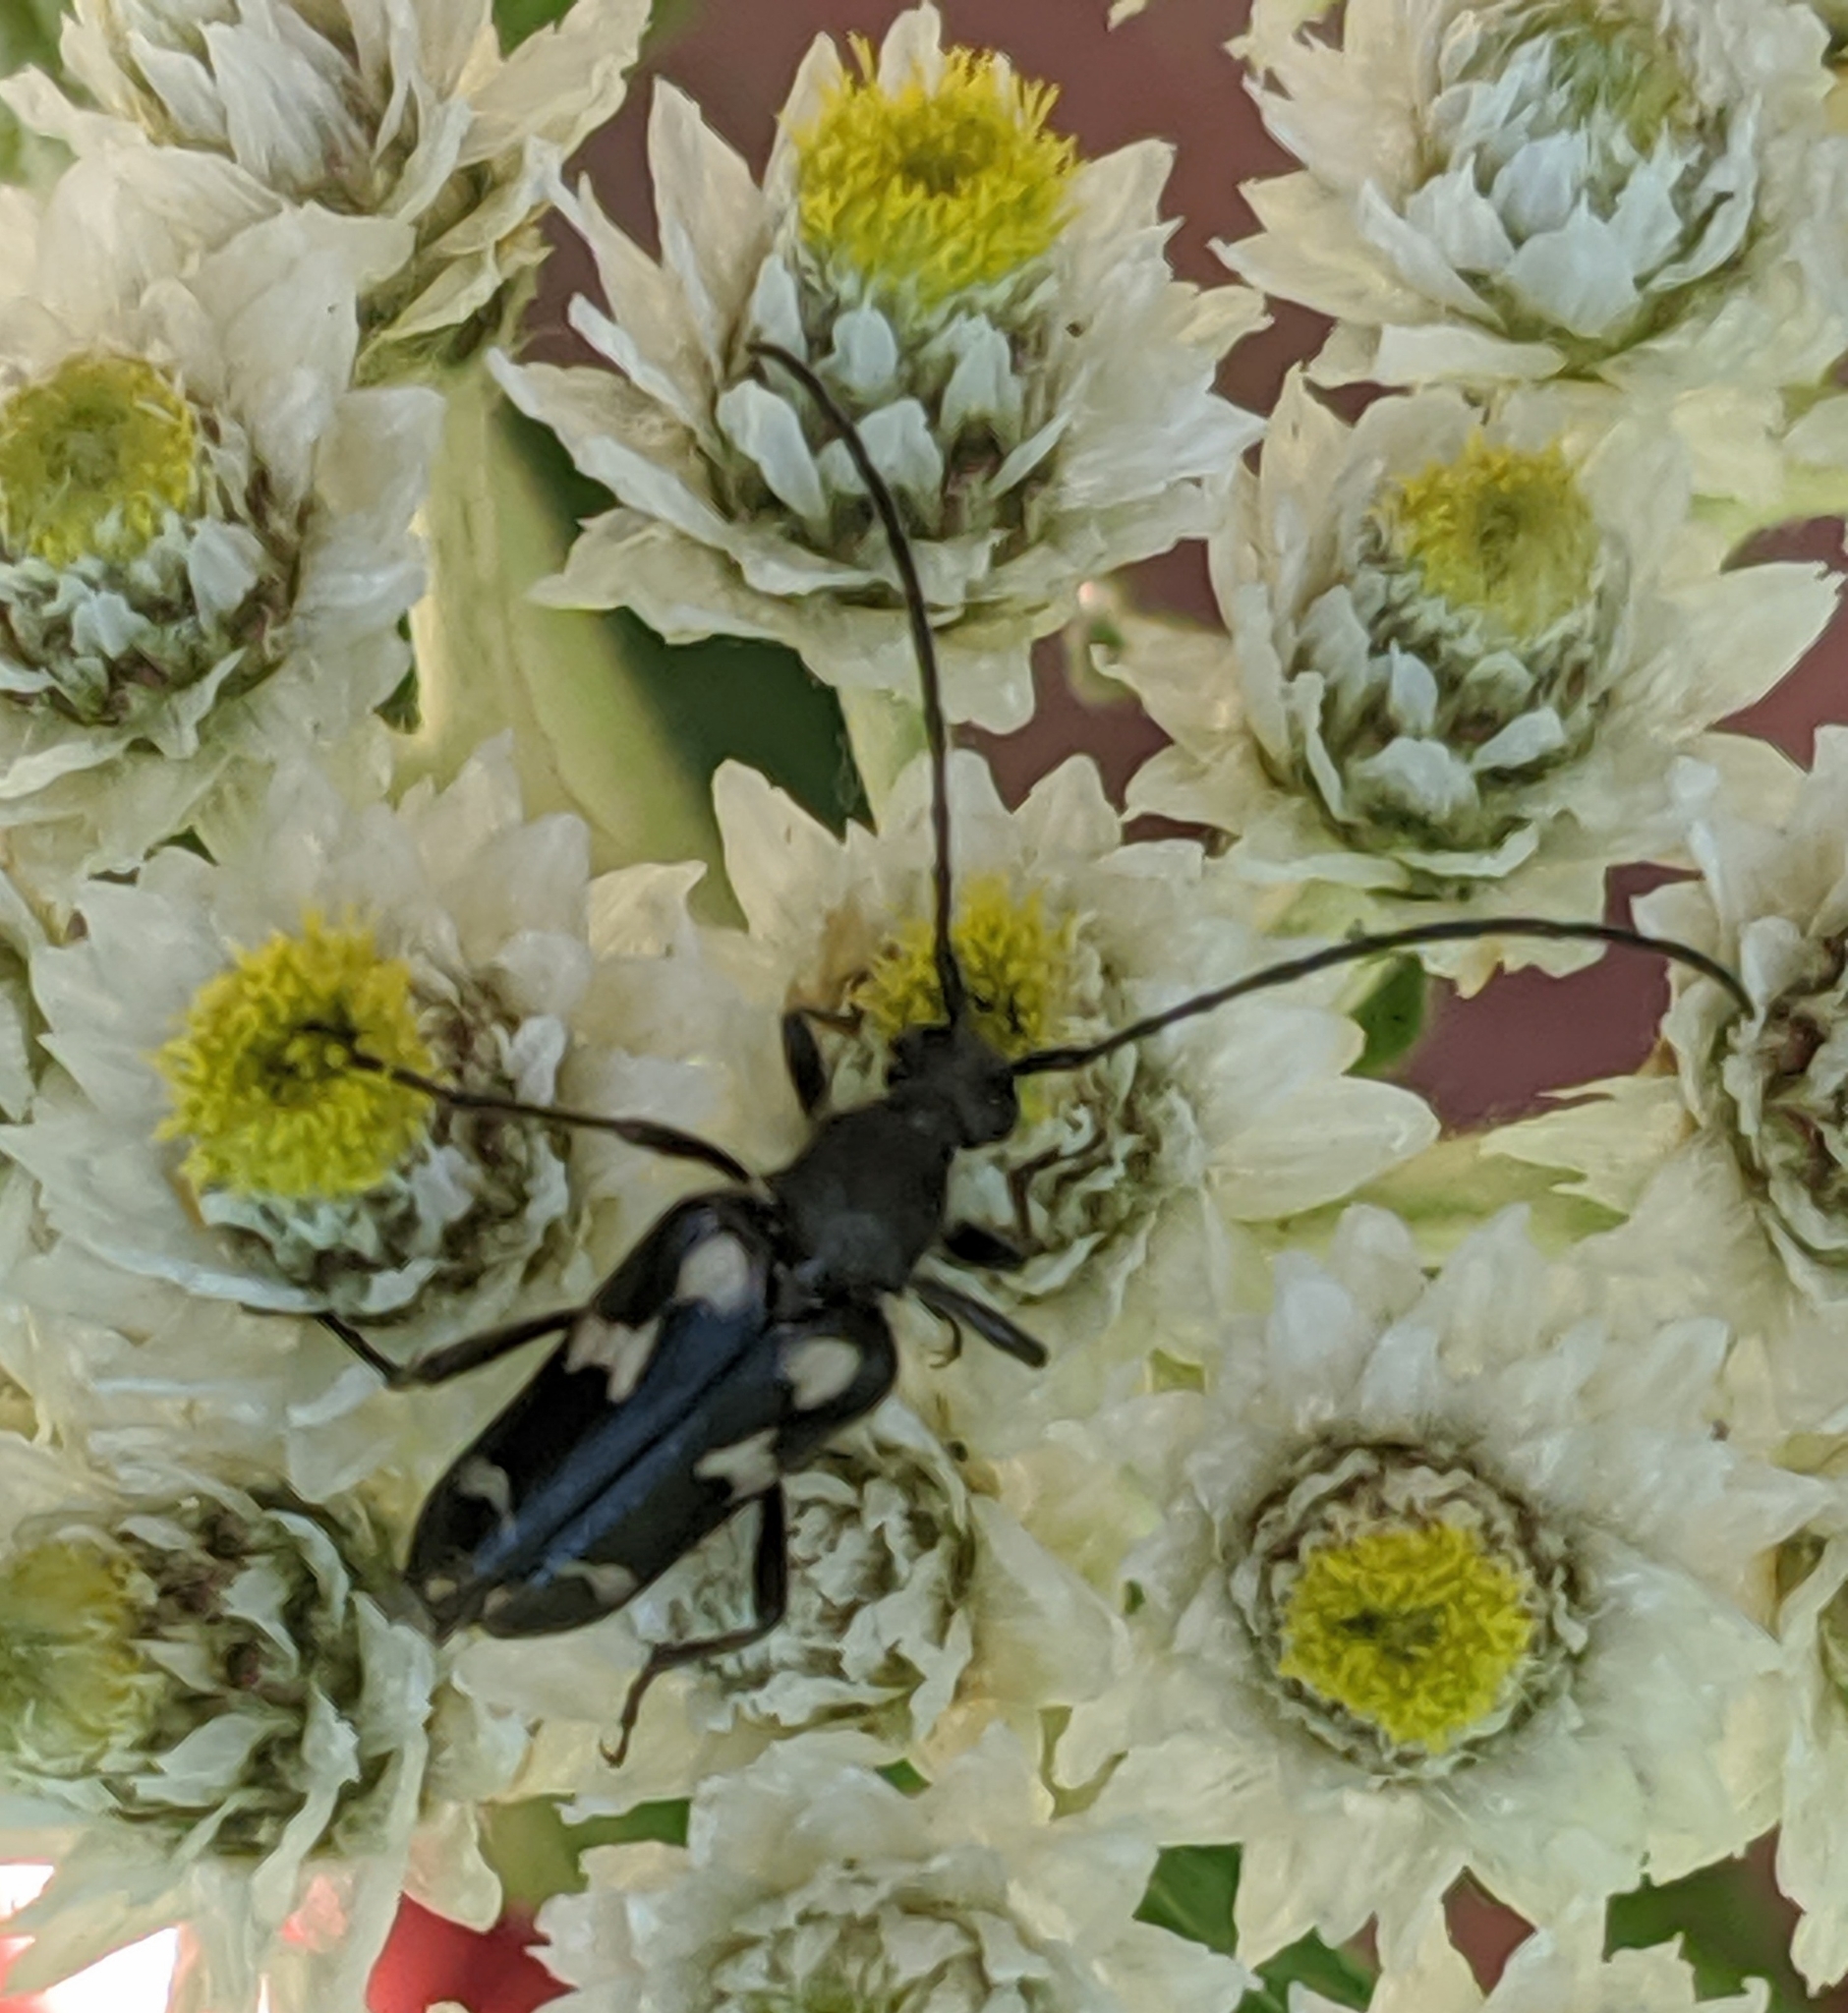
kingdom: Animalia
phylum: Arthropoda
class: Insecta
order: Coleoptera
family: Cerambycidae
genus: Judolia
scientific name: Judolia montivagans
